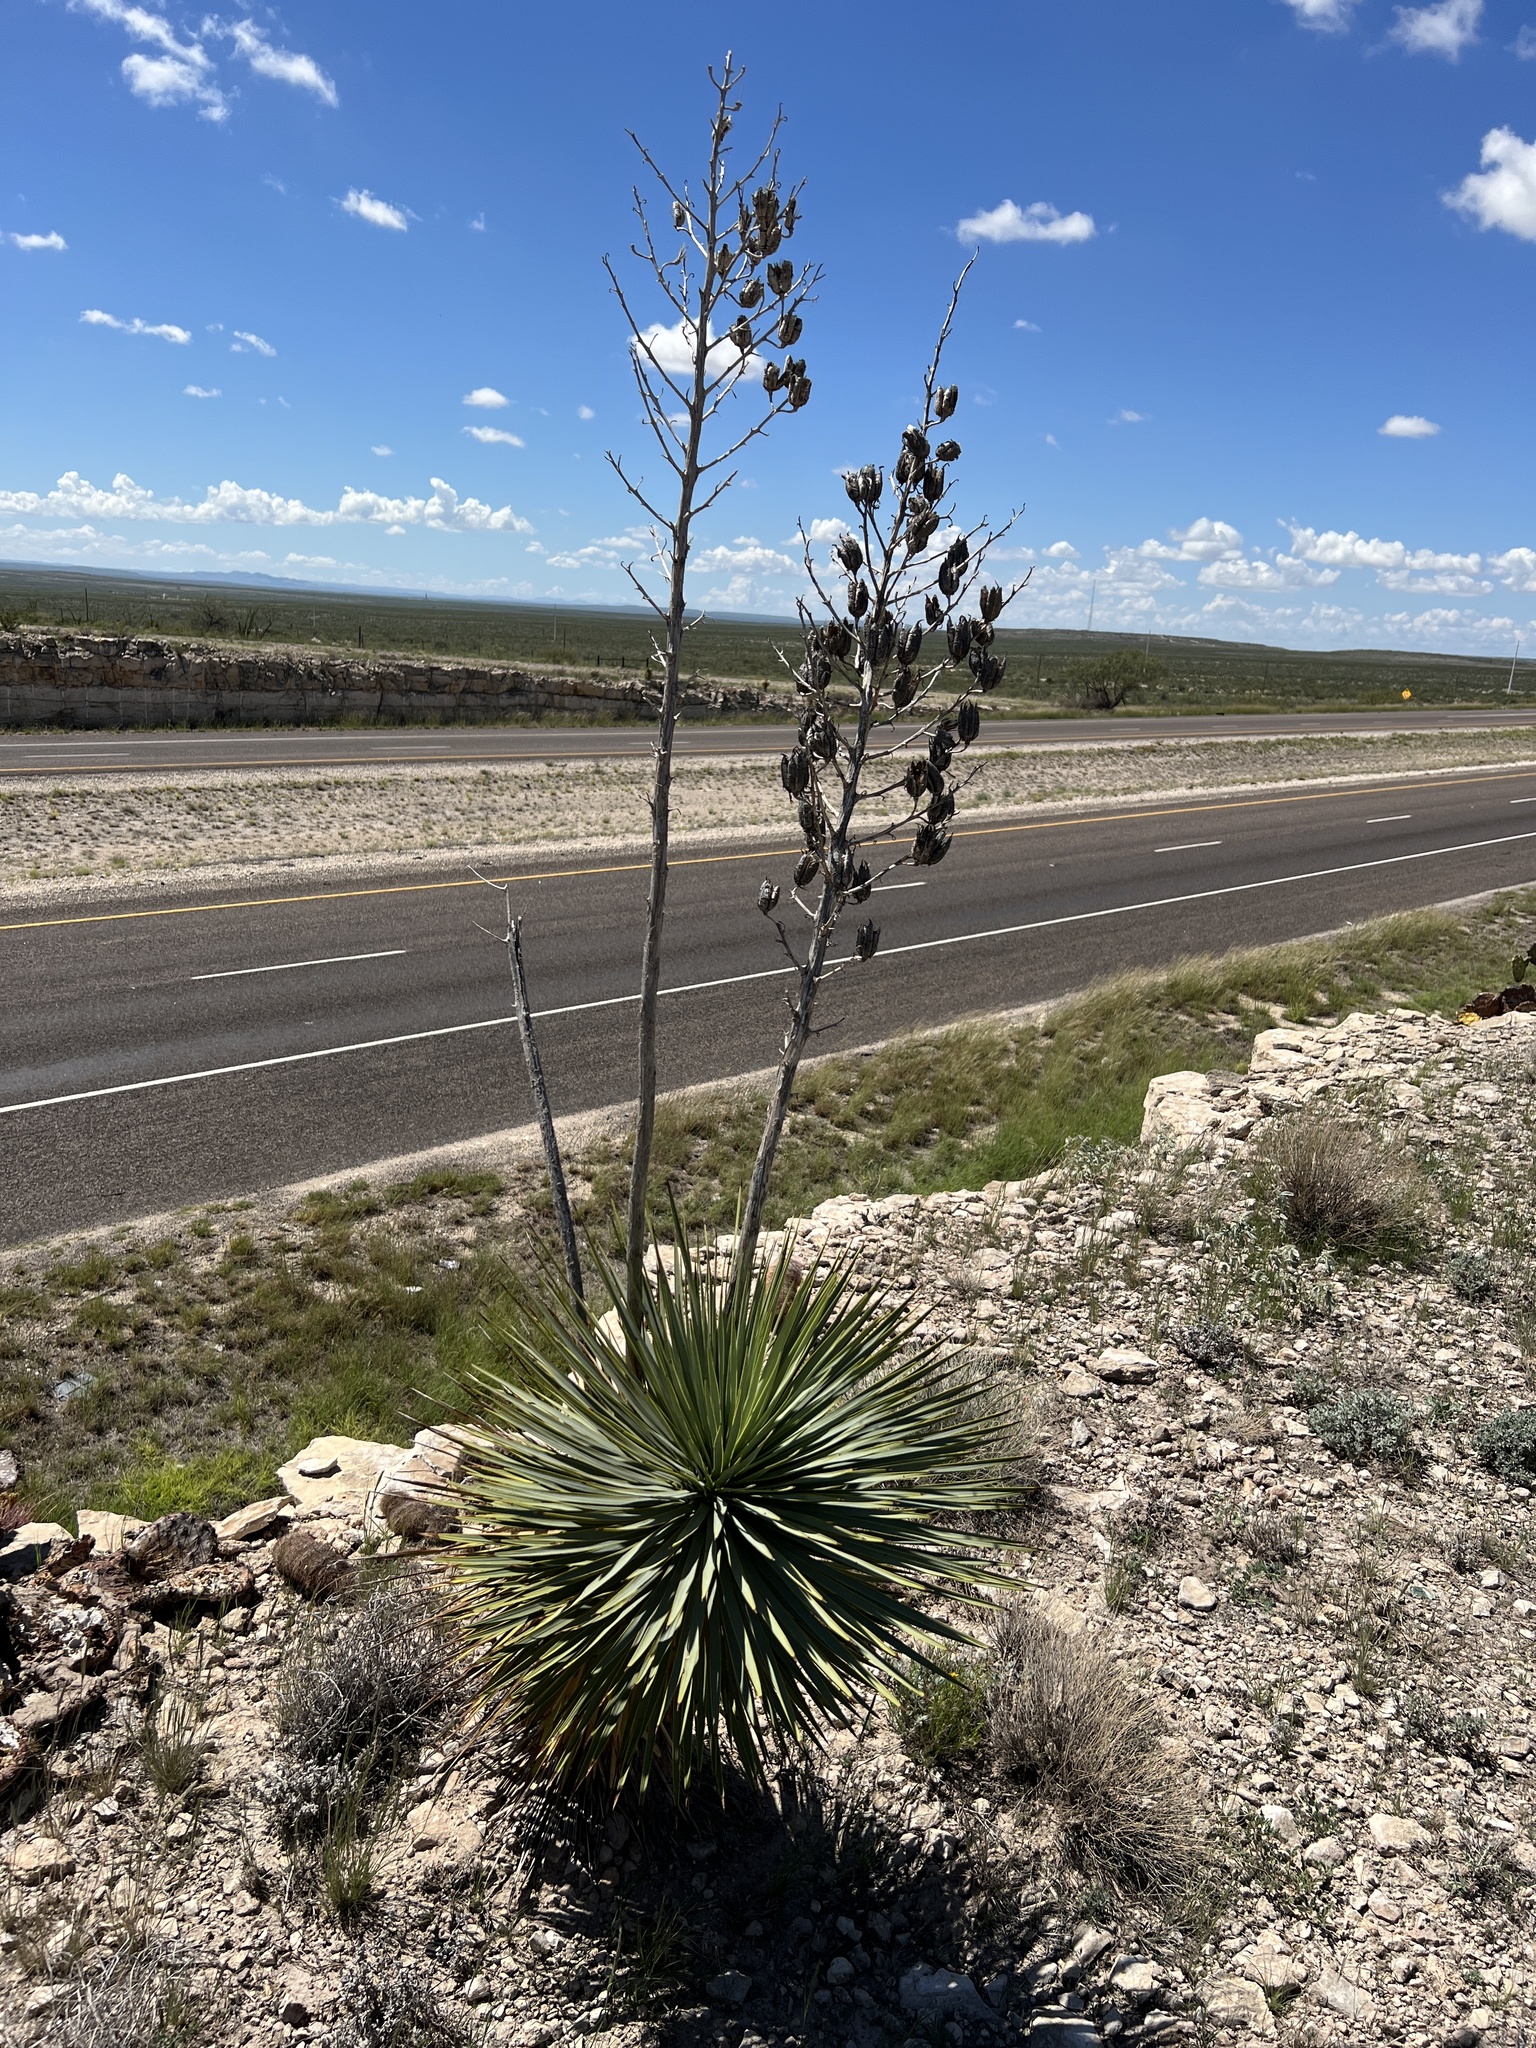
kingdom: Plantae
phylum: Tracheophyta
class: Liliopsida
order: Asparagales
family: Asparagaceae
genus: Yucca
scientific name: Yucca thompsoniana
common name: Trans-pecos yucca
